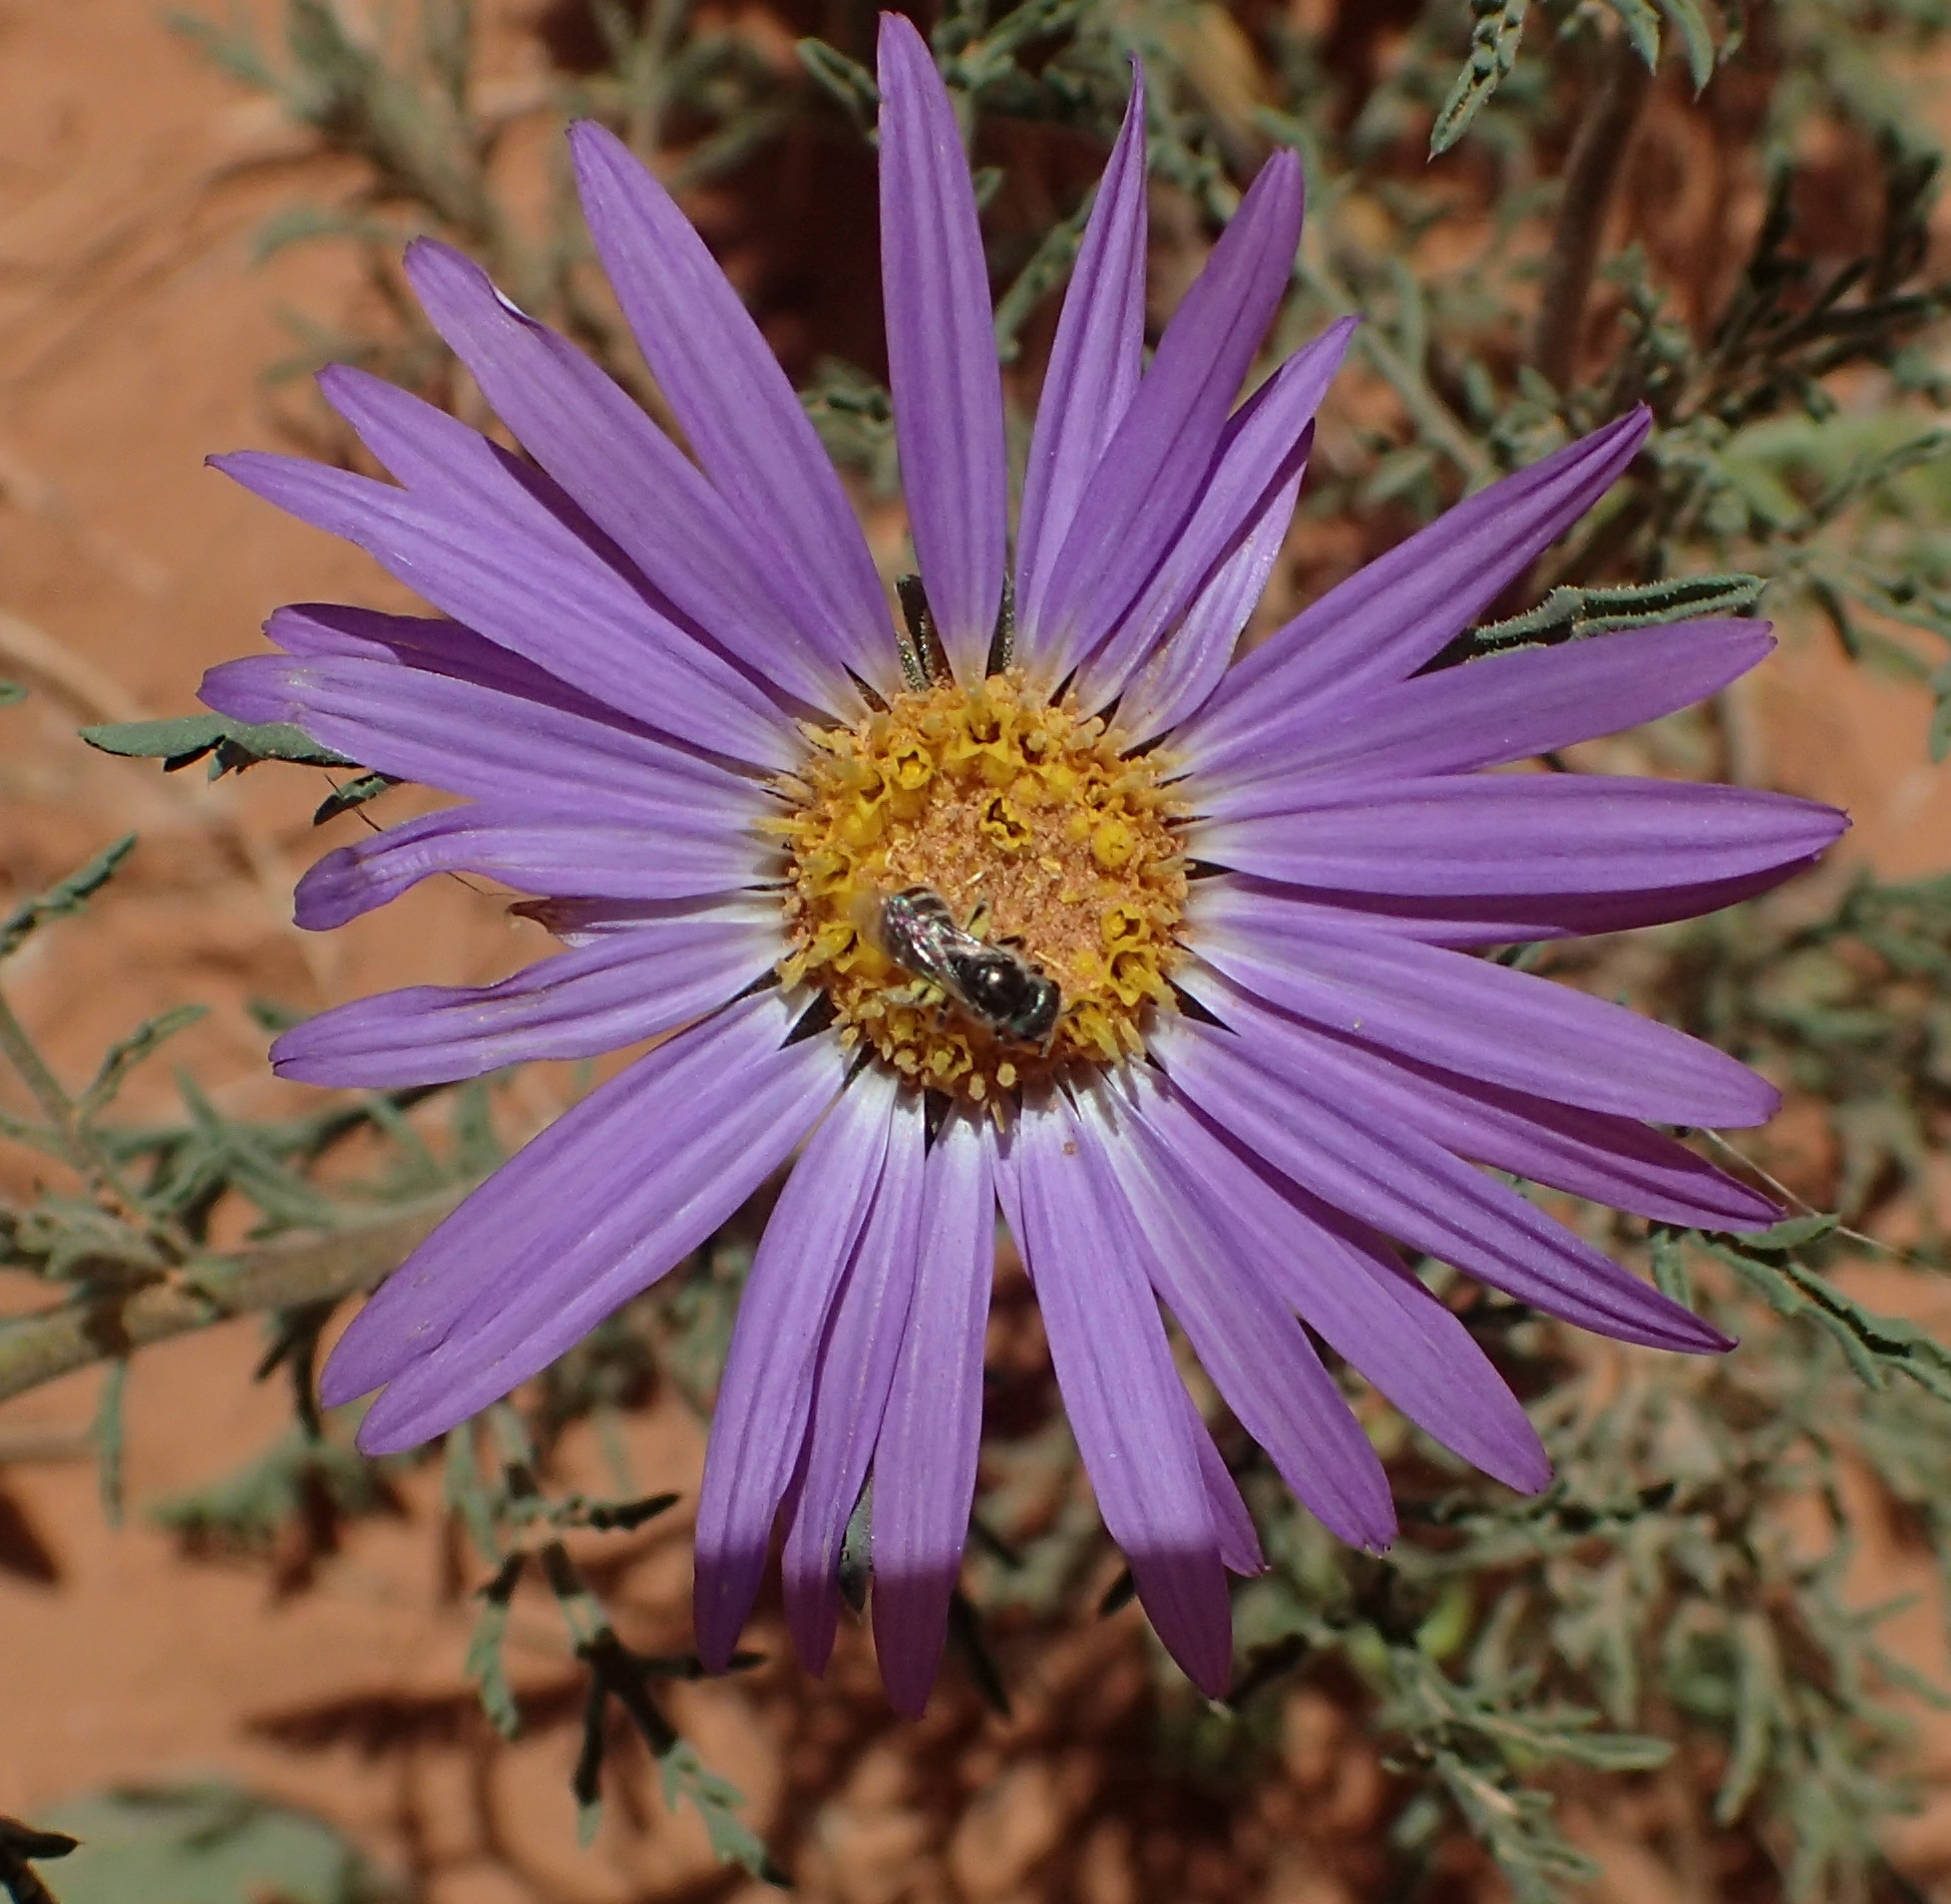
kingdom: Plantae
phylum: Tracheophyta
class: Magnoliopsida
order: Asterales
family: Asteraceae
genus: Machaeranthera
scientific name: Machaeranthera tanacetifolia
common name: Tansy-aster
